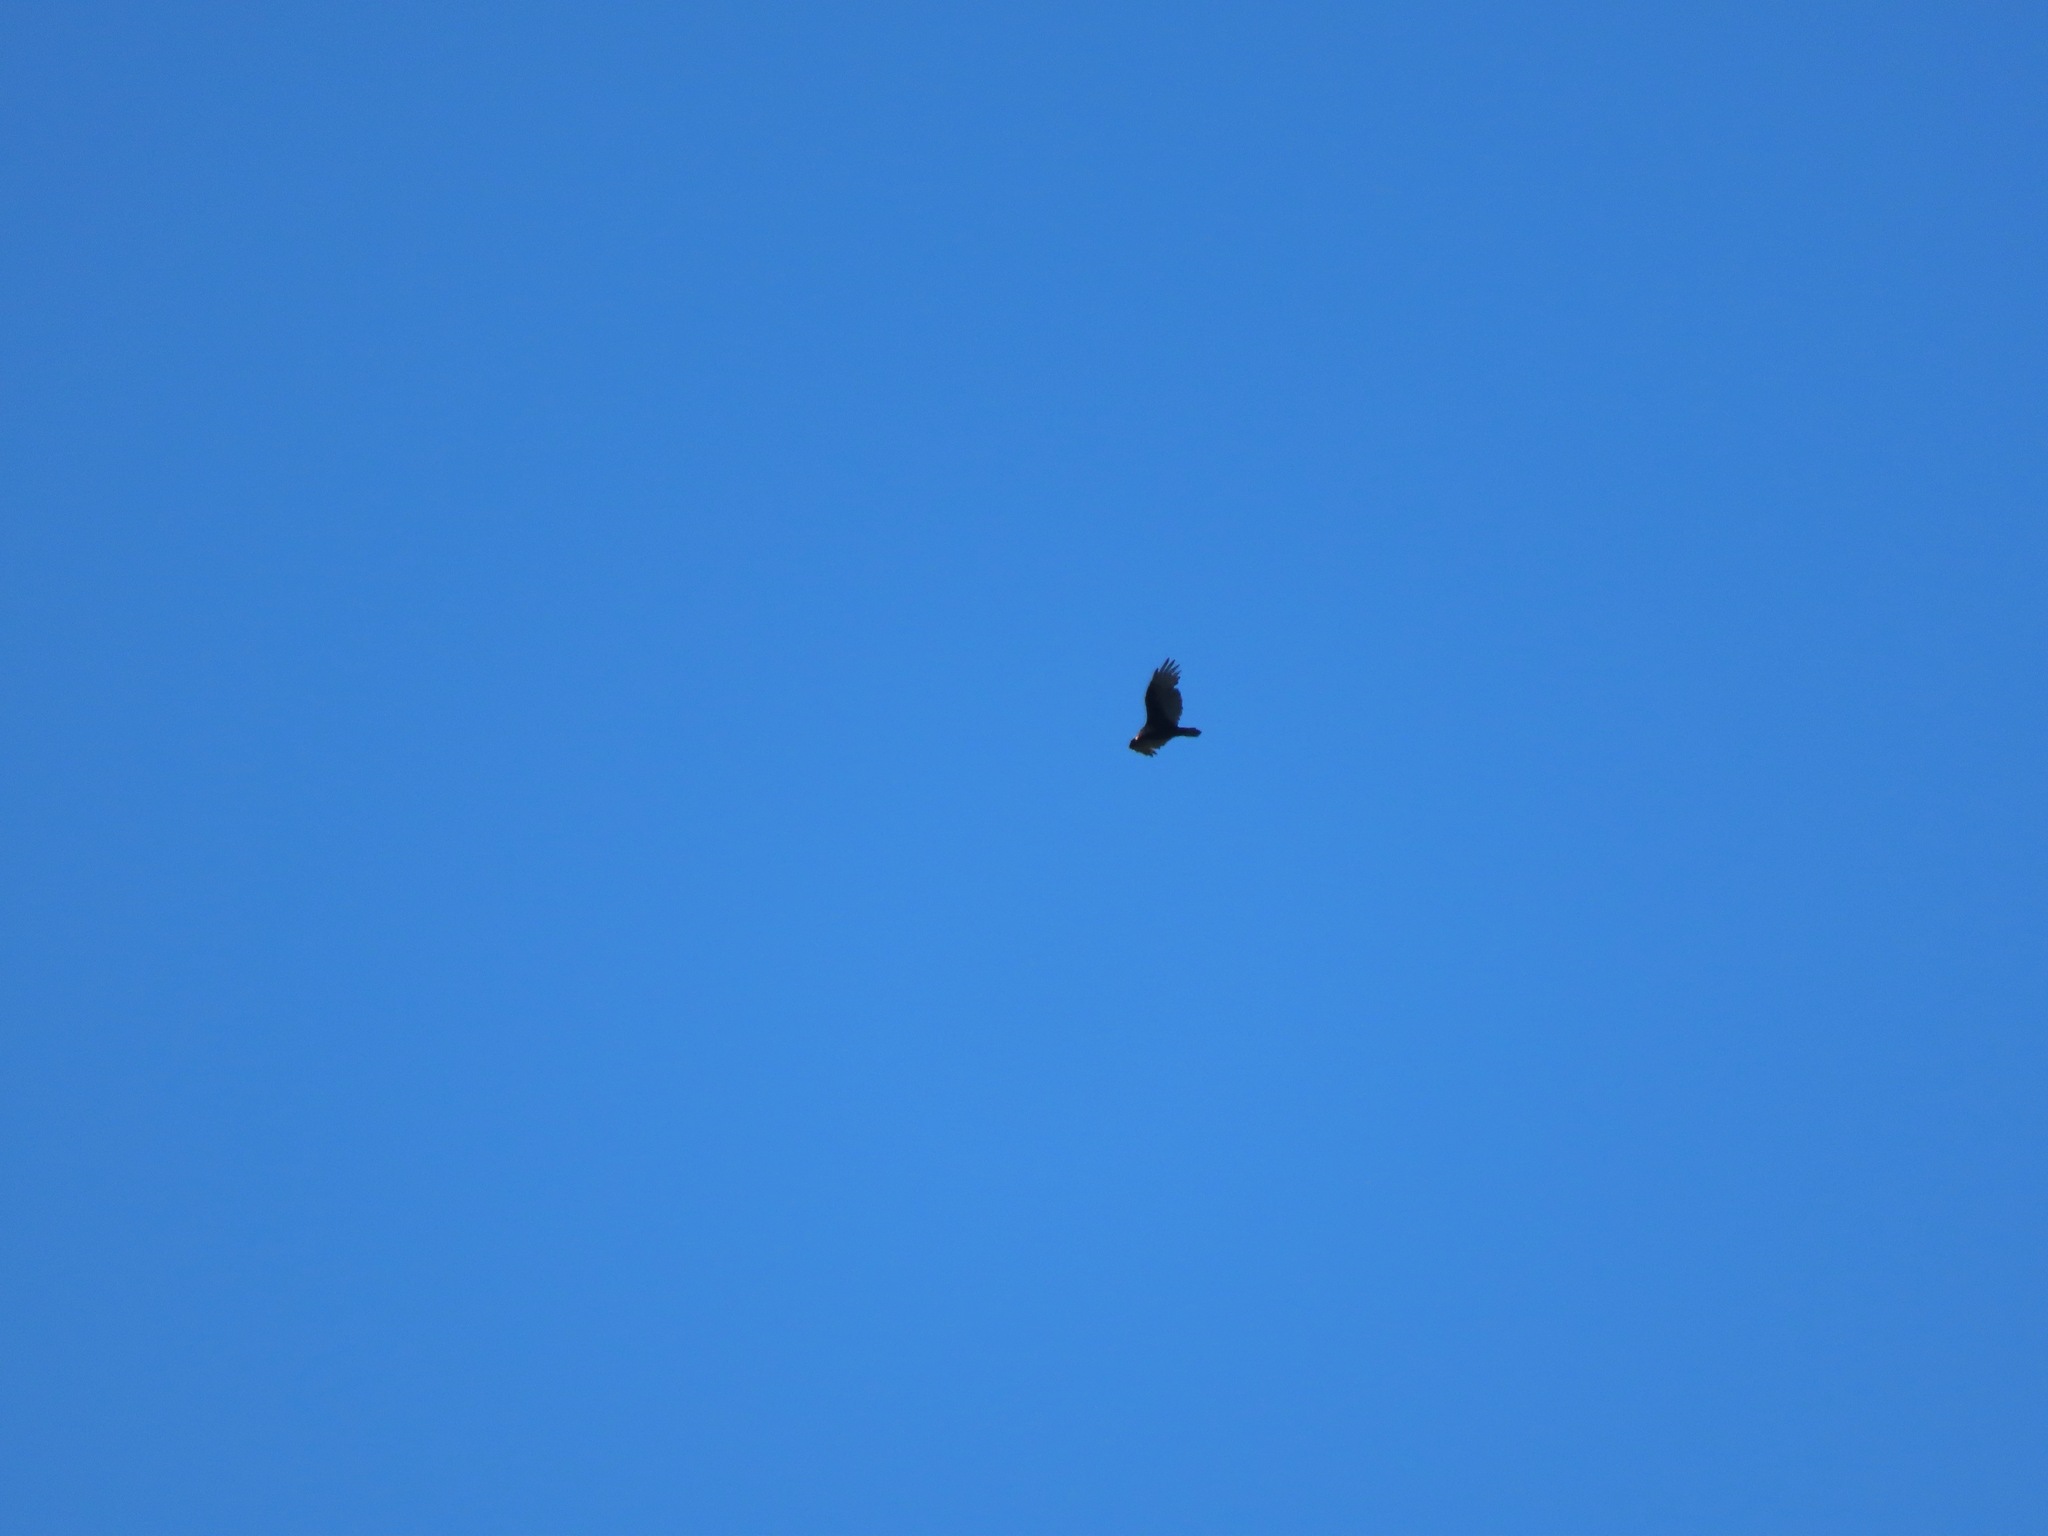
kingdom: Animalia
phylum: Chordata
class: Aves
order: Accipitriformes
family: Cathartidae
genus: Cathartes
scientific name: Cathartes aura
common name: Turkey vulture
